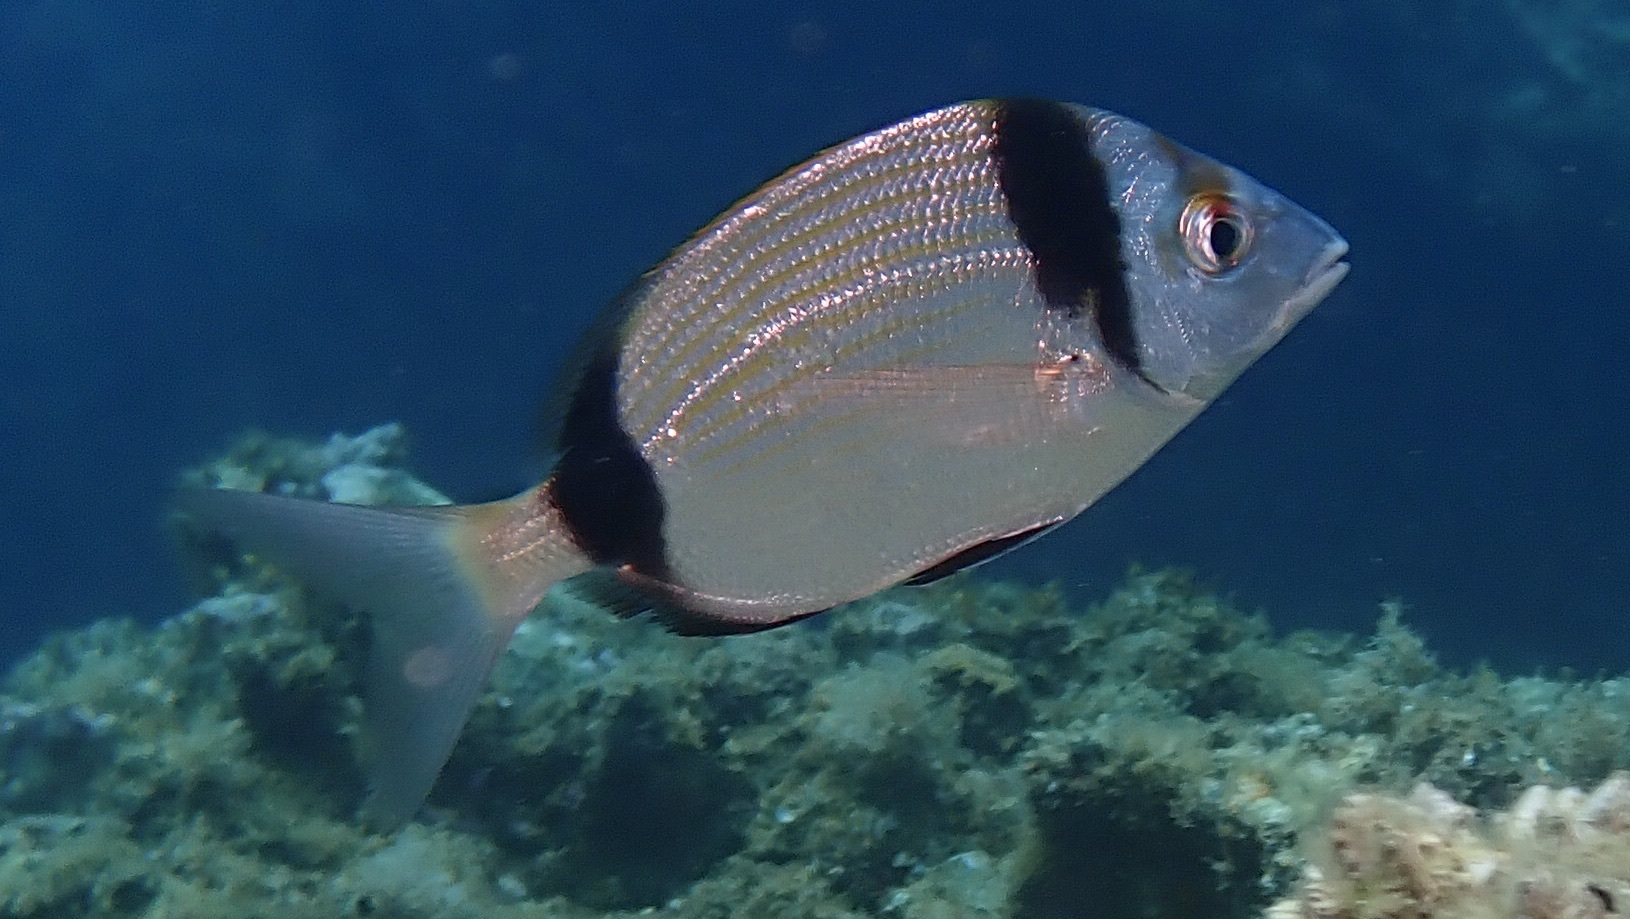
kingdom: Animalia
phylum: Chordata
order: Perciformes
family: Sparidae
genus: Diplodus
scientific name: Diplodus vulgaris
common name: Common two-banded seabream
